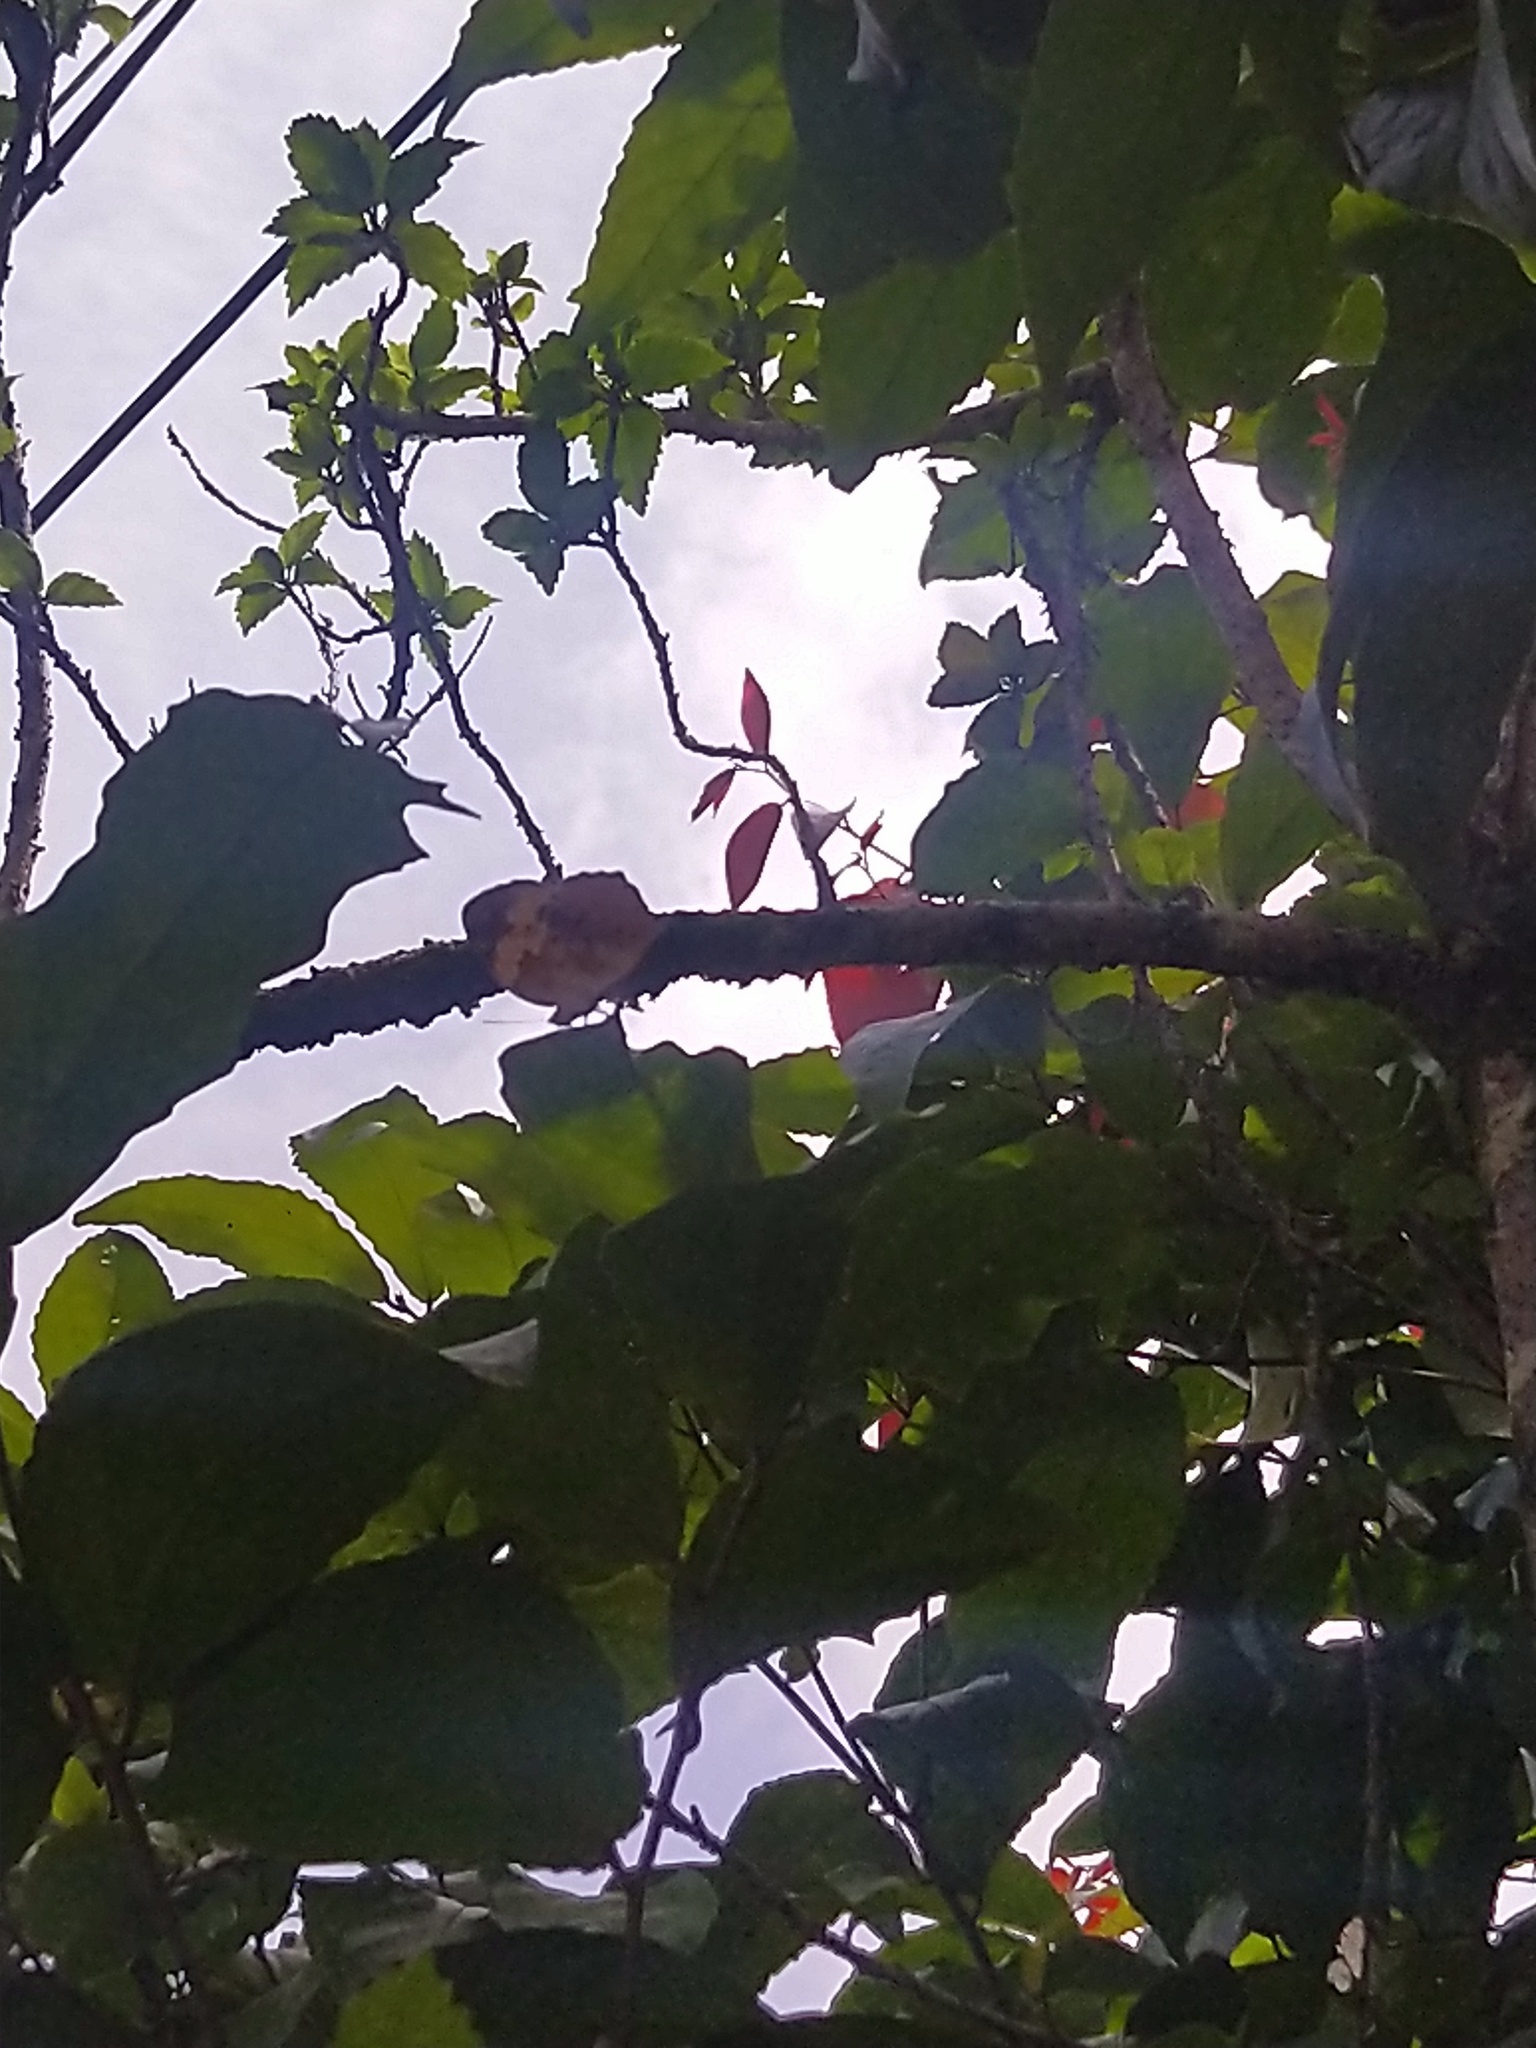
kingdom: Animalia
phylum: Arthropoda
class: Insecta
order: Lepidoptera
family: Nymphalidae
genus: Cupha
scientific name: Cupha erymanthis
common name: Rustic
